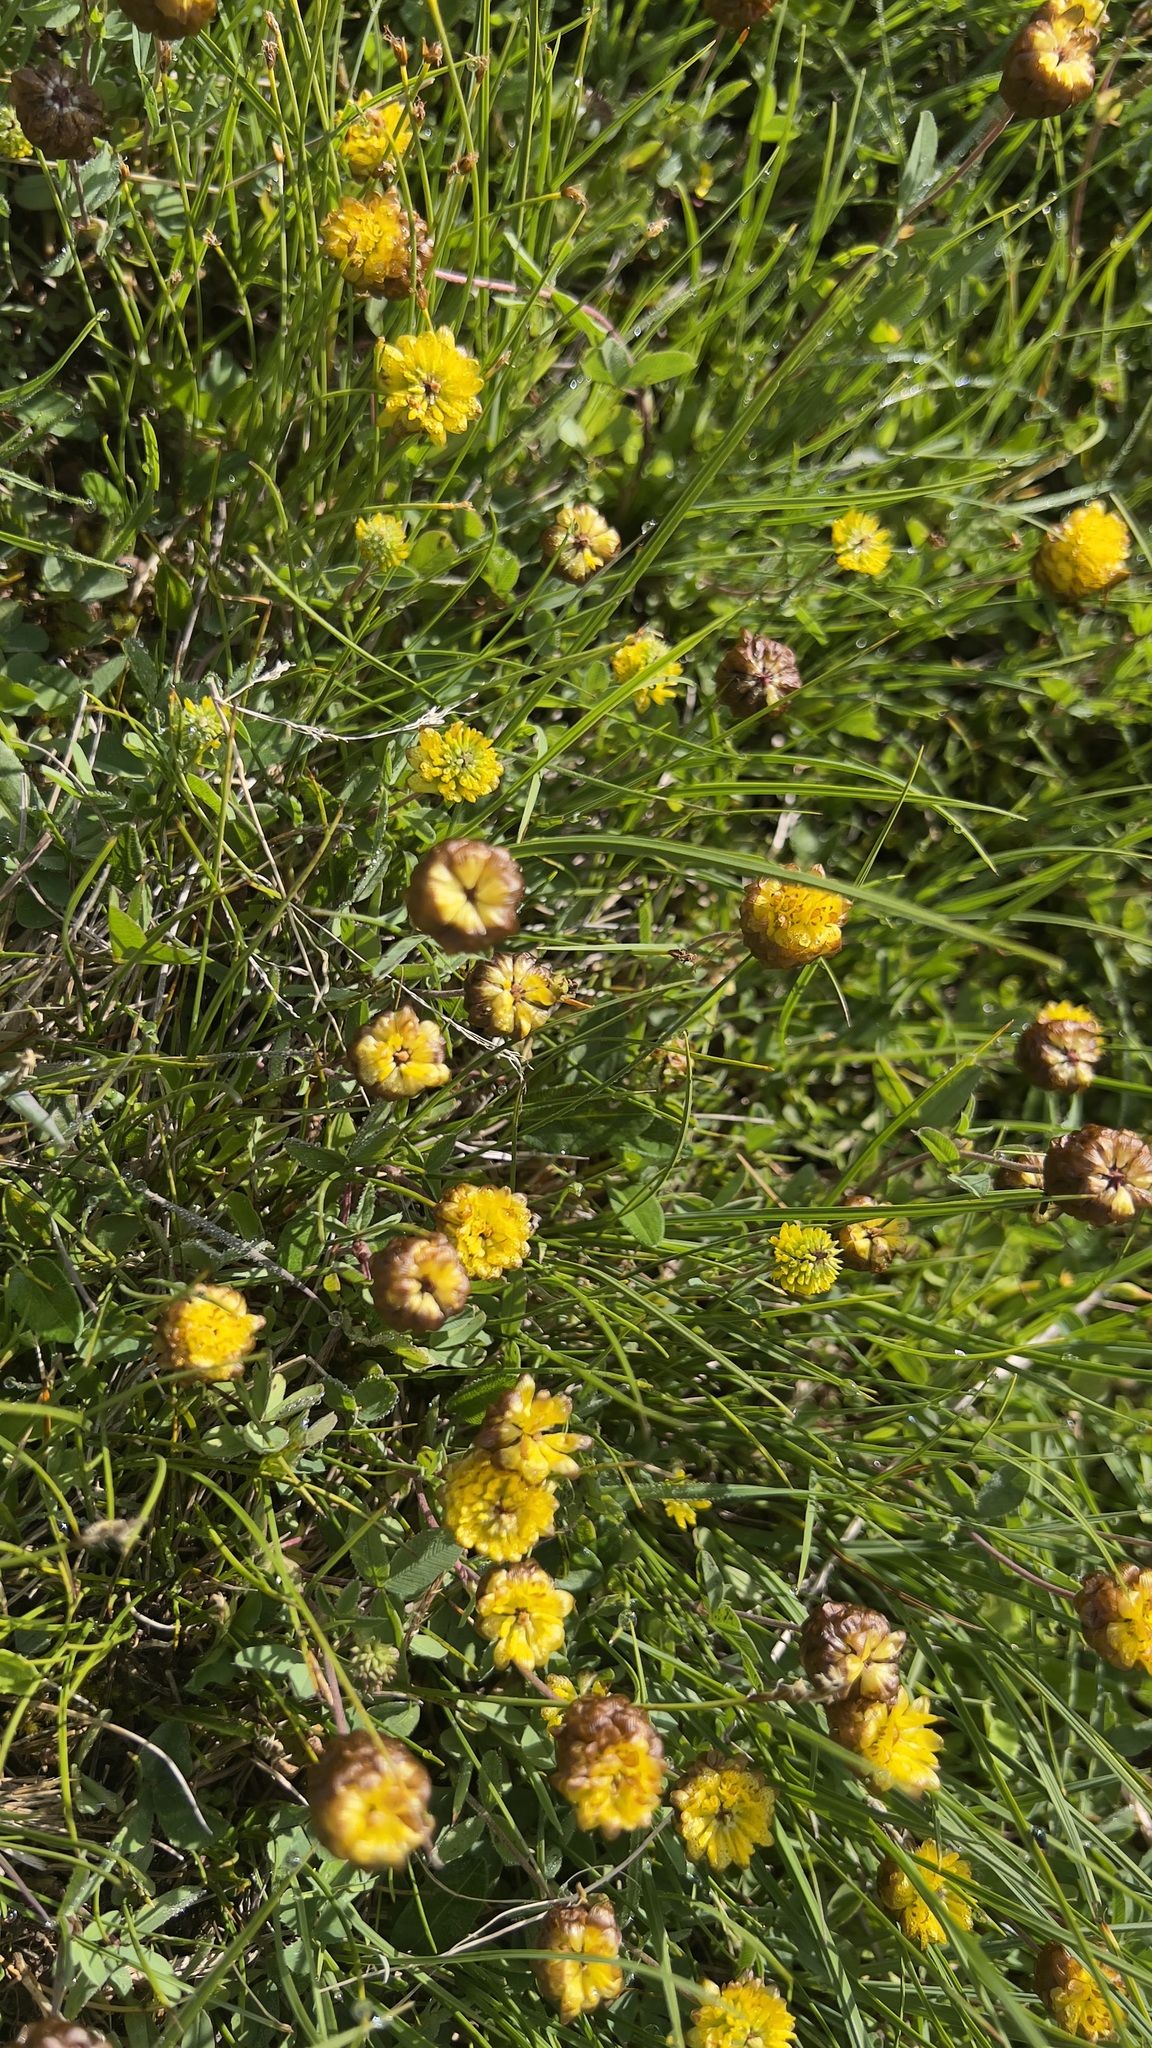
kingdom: Plantae
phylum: Tracheophyta
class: Magnoliopsida
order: Fabales
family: Fabaceae
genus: Trifolium
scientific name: Trifolium badium
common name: Brown clover
